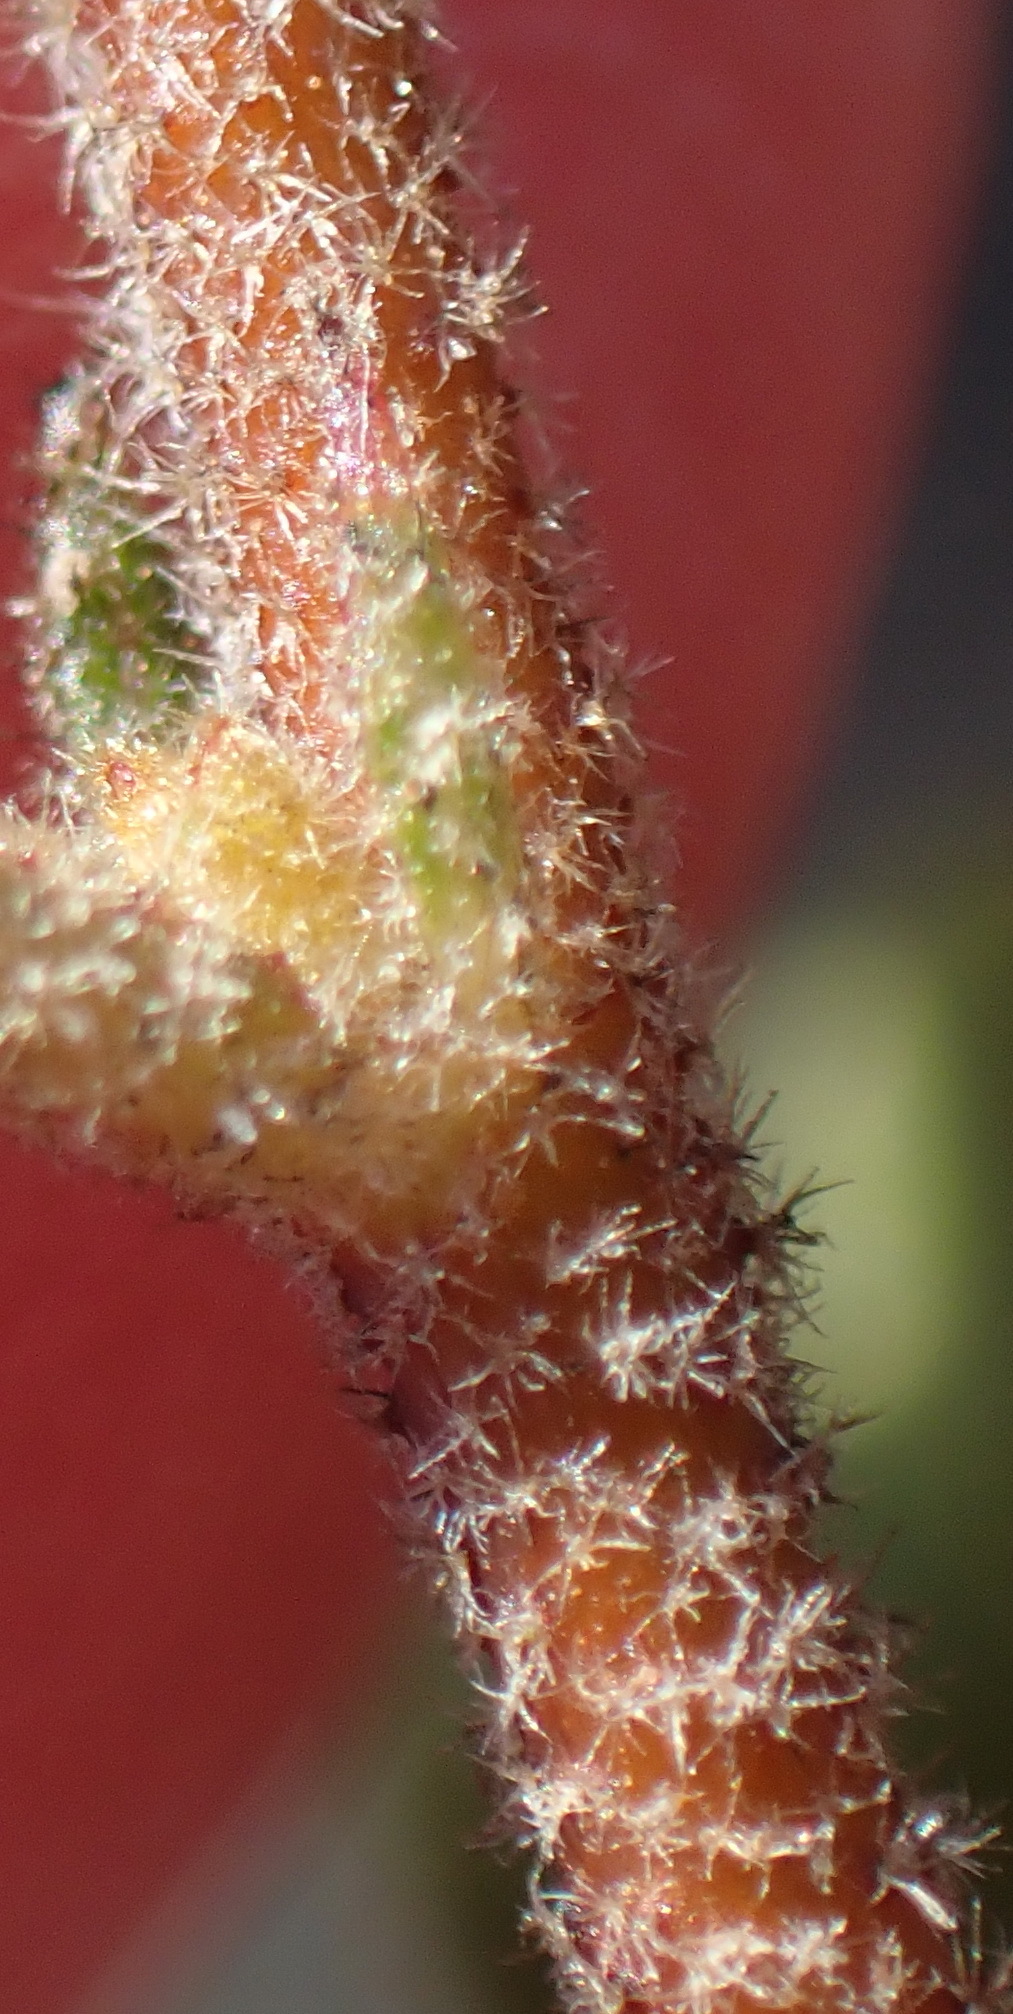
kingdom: Plantae
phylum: Tracheophyta
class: Magnoliopsida
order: Malvales
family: Malvaceae
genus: Hermannia
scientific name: Hermannia salviifolia
